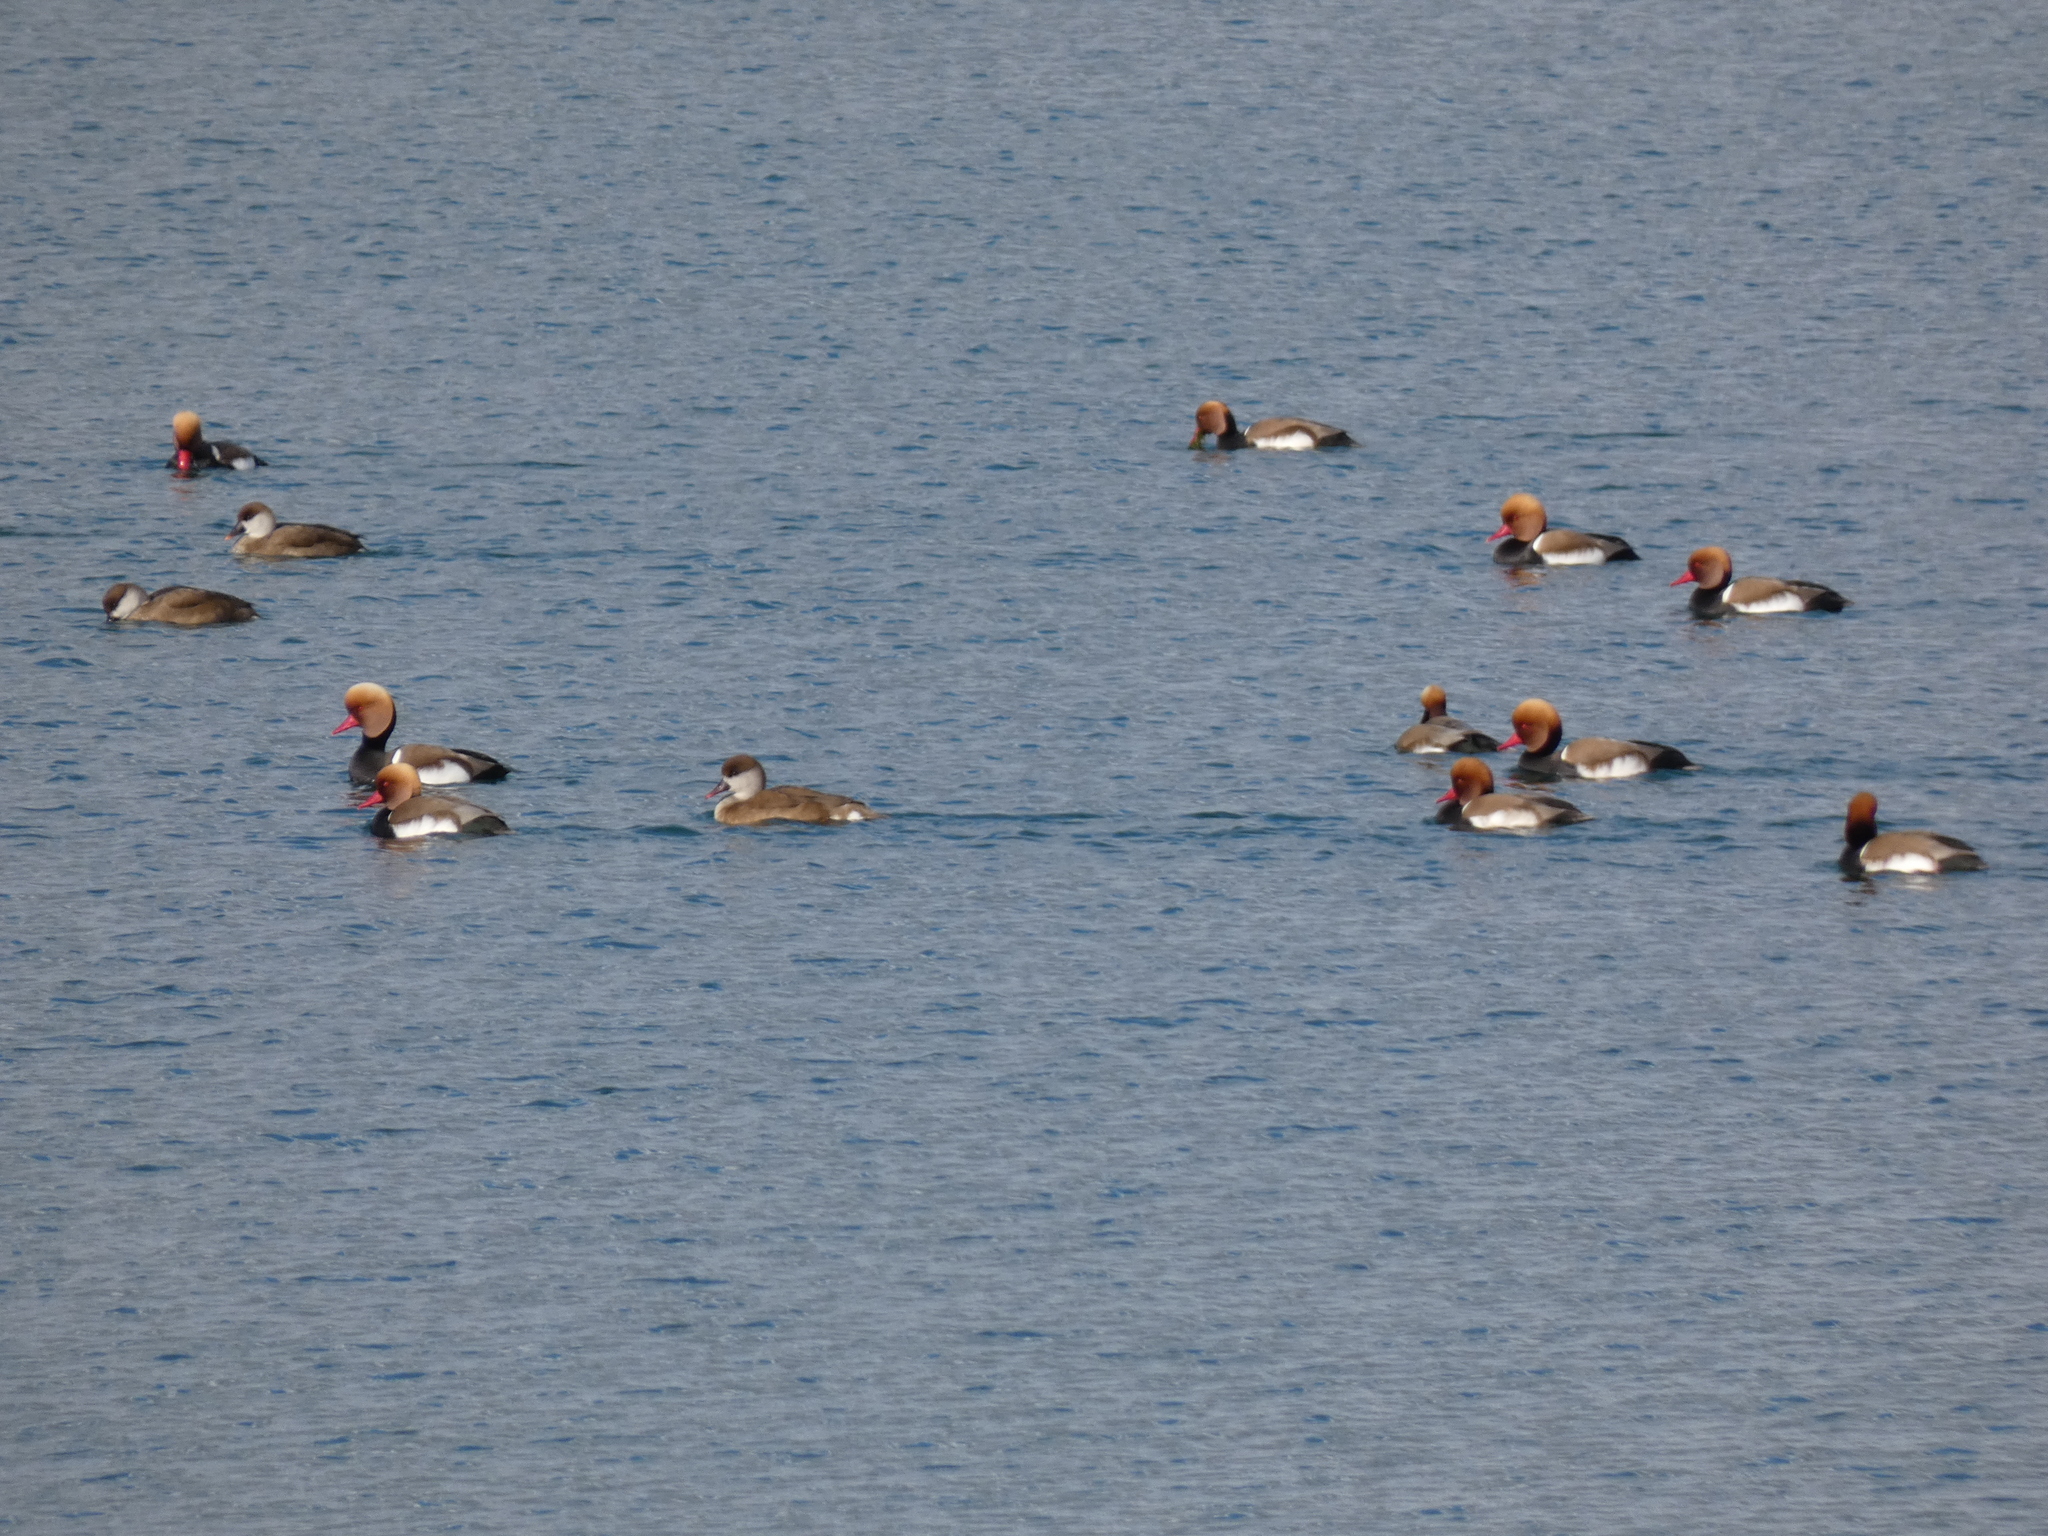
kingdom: Animalia
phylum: Chordata
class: Aves
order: Anseriformes
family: Anatidae
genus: Netta
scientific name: Netta rufina
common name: Red-crested pochard
